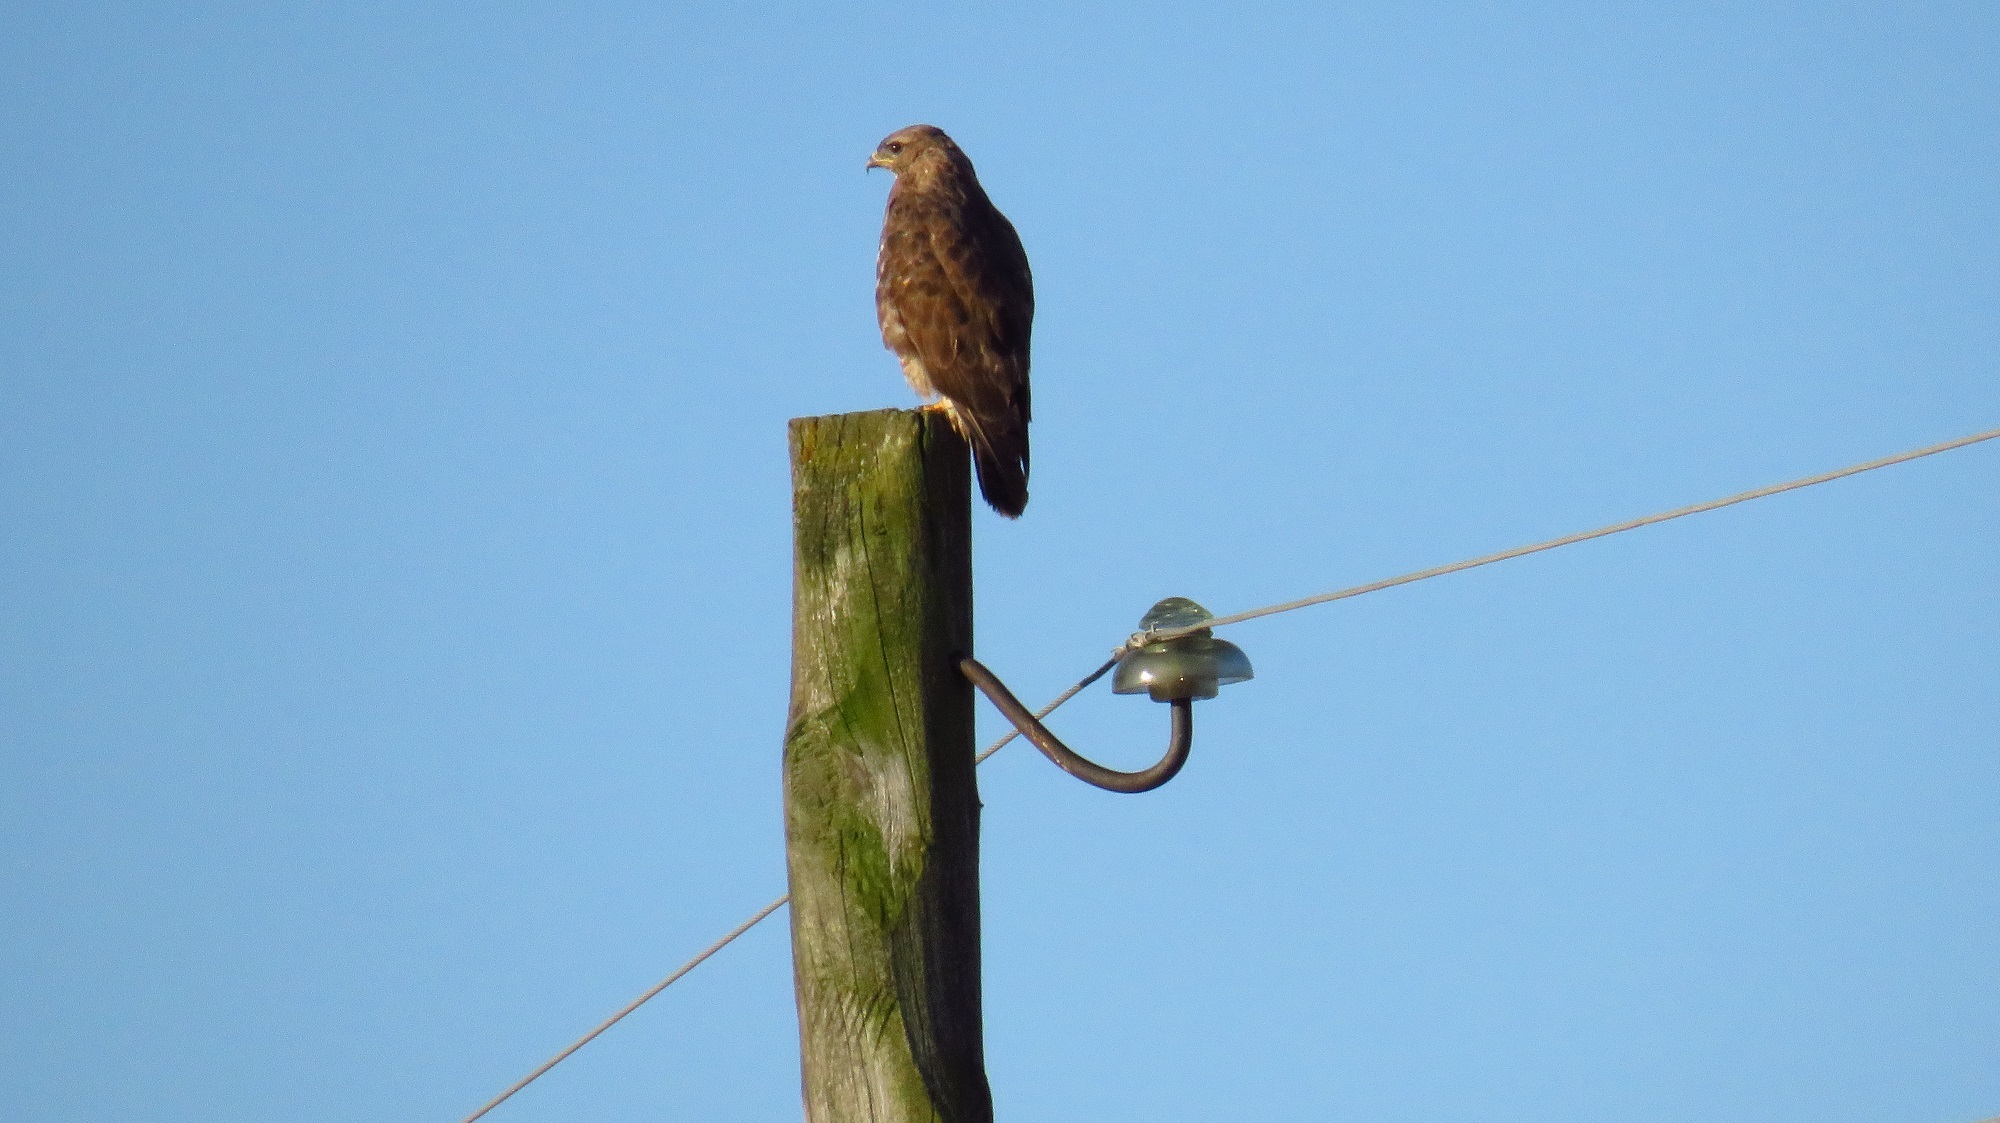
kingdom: Animalia
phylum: Chordata
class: Aves
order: Accipitriformes
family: Accipitridae
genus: Buteo
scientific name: Buteo buteo
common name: Common buzzard
